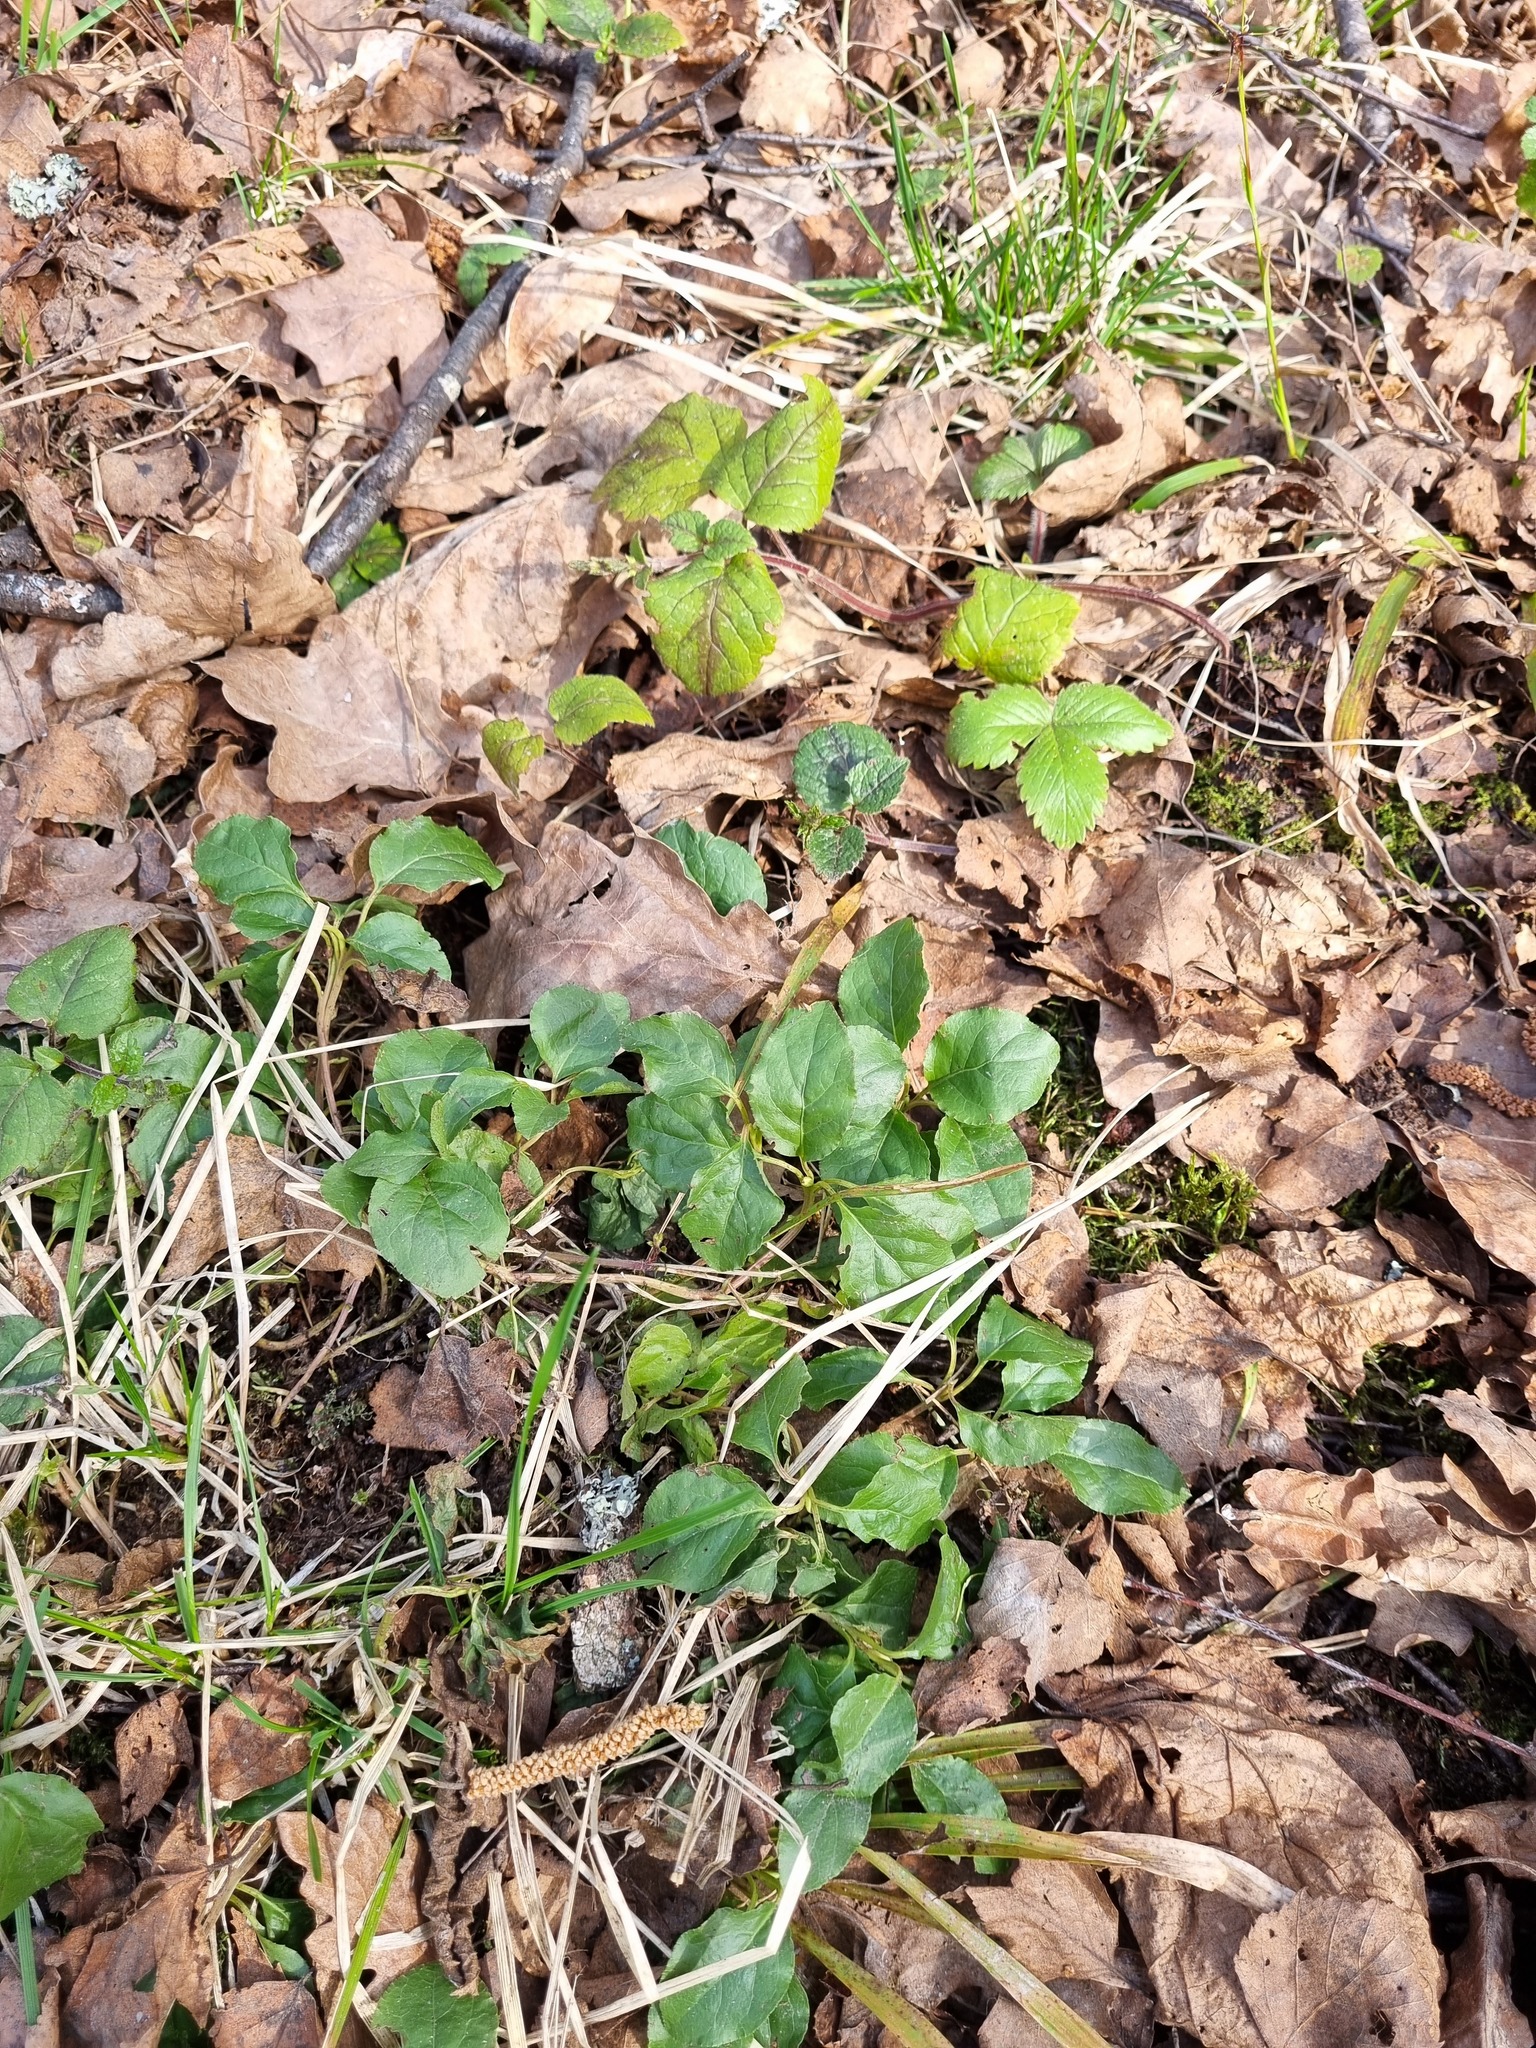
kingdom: Plantae
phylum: Tracheophyta
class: Magnoliopsida
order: Ericales
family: Ericaceae
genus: Orthilia
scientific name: Orthilia secunda
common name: One-sided orthilia
